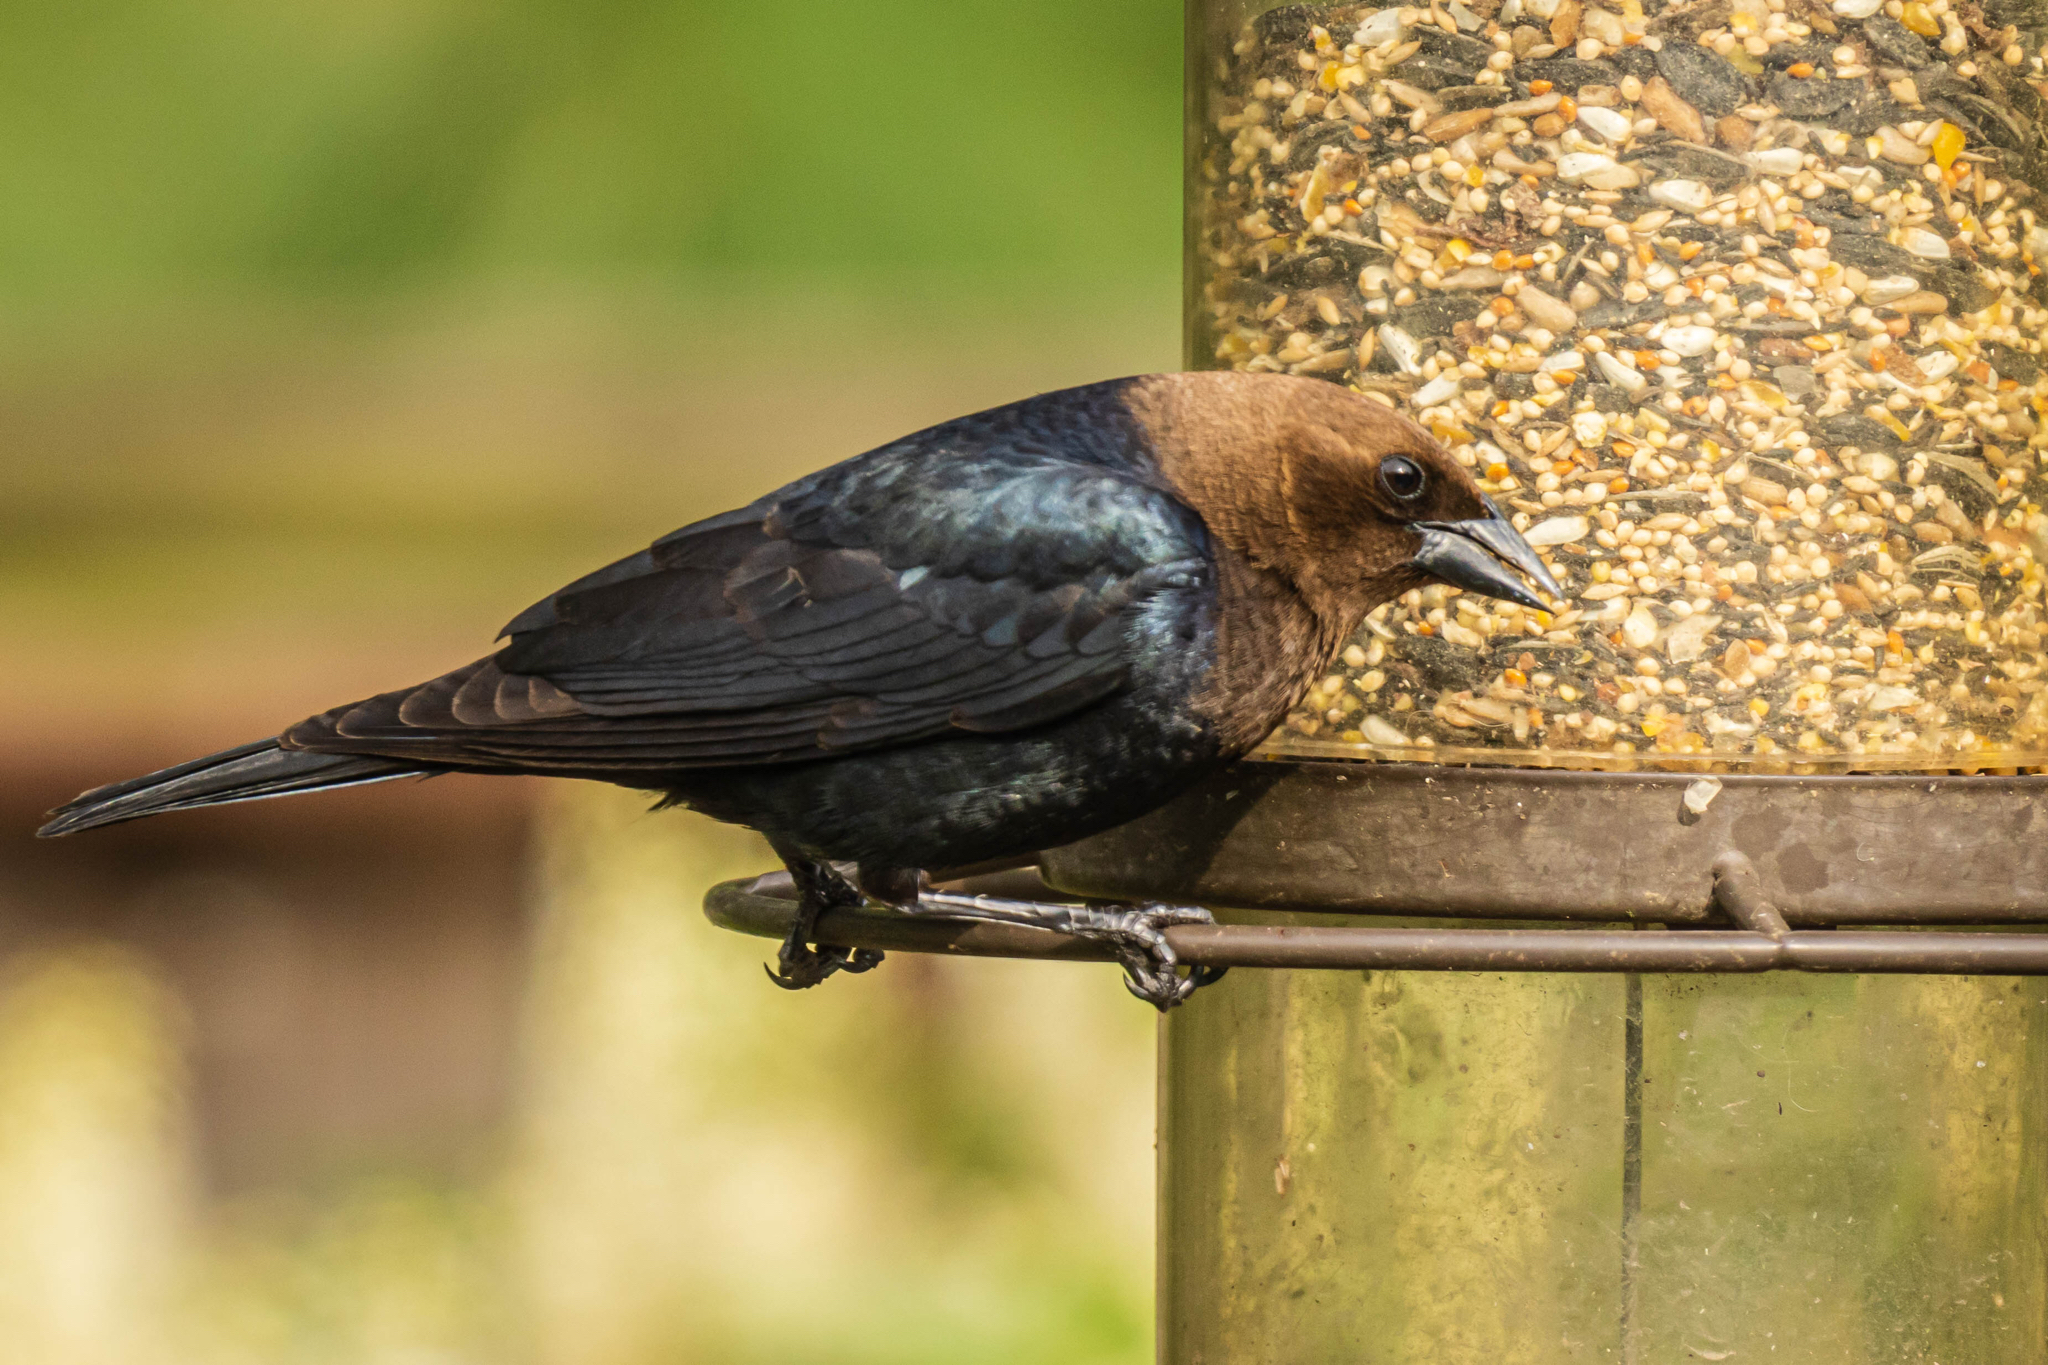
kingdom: Animalia
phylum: Chordata
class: Aves
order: Passeriformes
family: Icteridae
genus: Molothrus
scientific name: Molothrus ater
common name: Brown-headed cowbird
